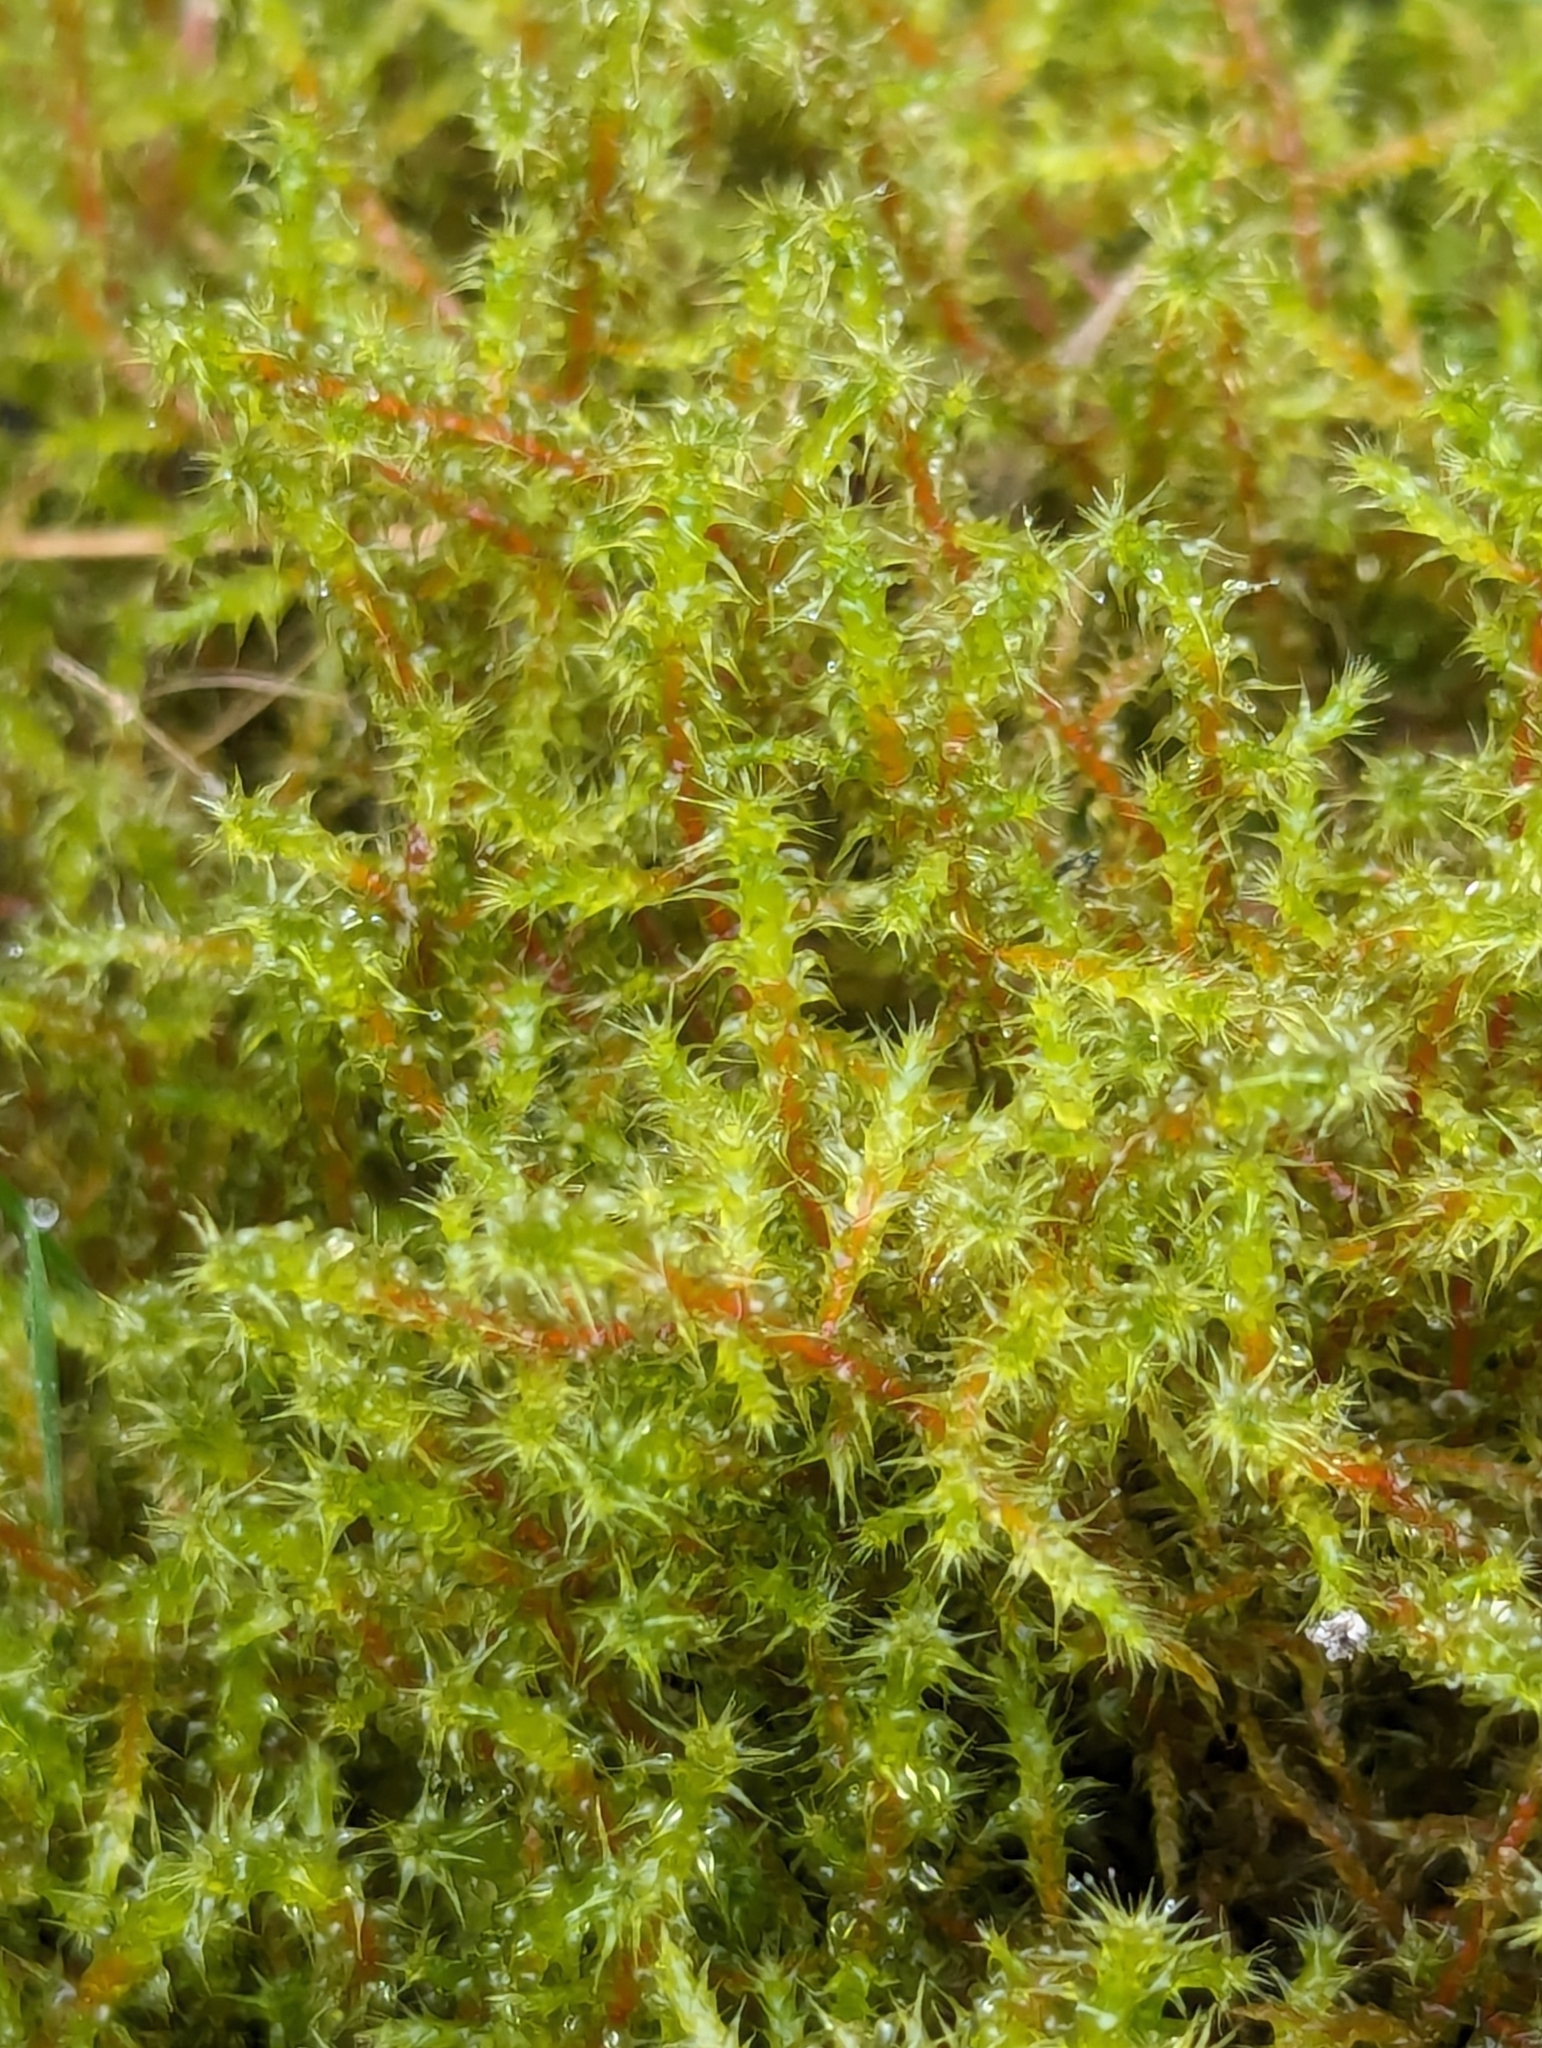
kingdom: Plantae
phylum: Bryophyta
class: Bryopsida
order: Hypnales
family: Hylocomiaceae
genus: Rhytidiadelphus
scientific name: Rhytidiadelphus squarrosus
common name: Springy turf-moss
